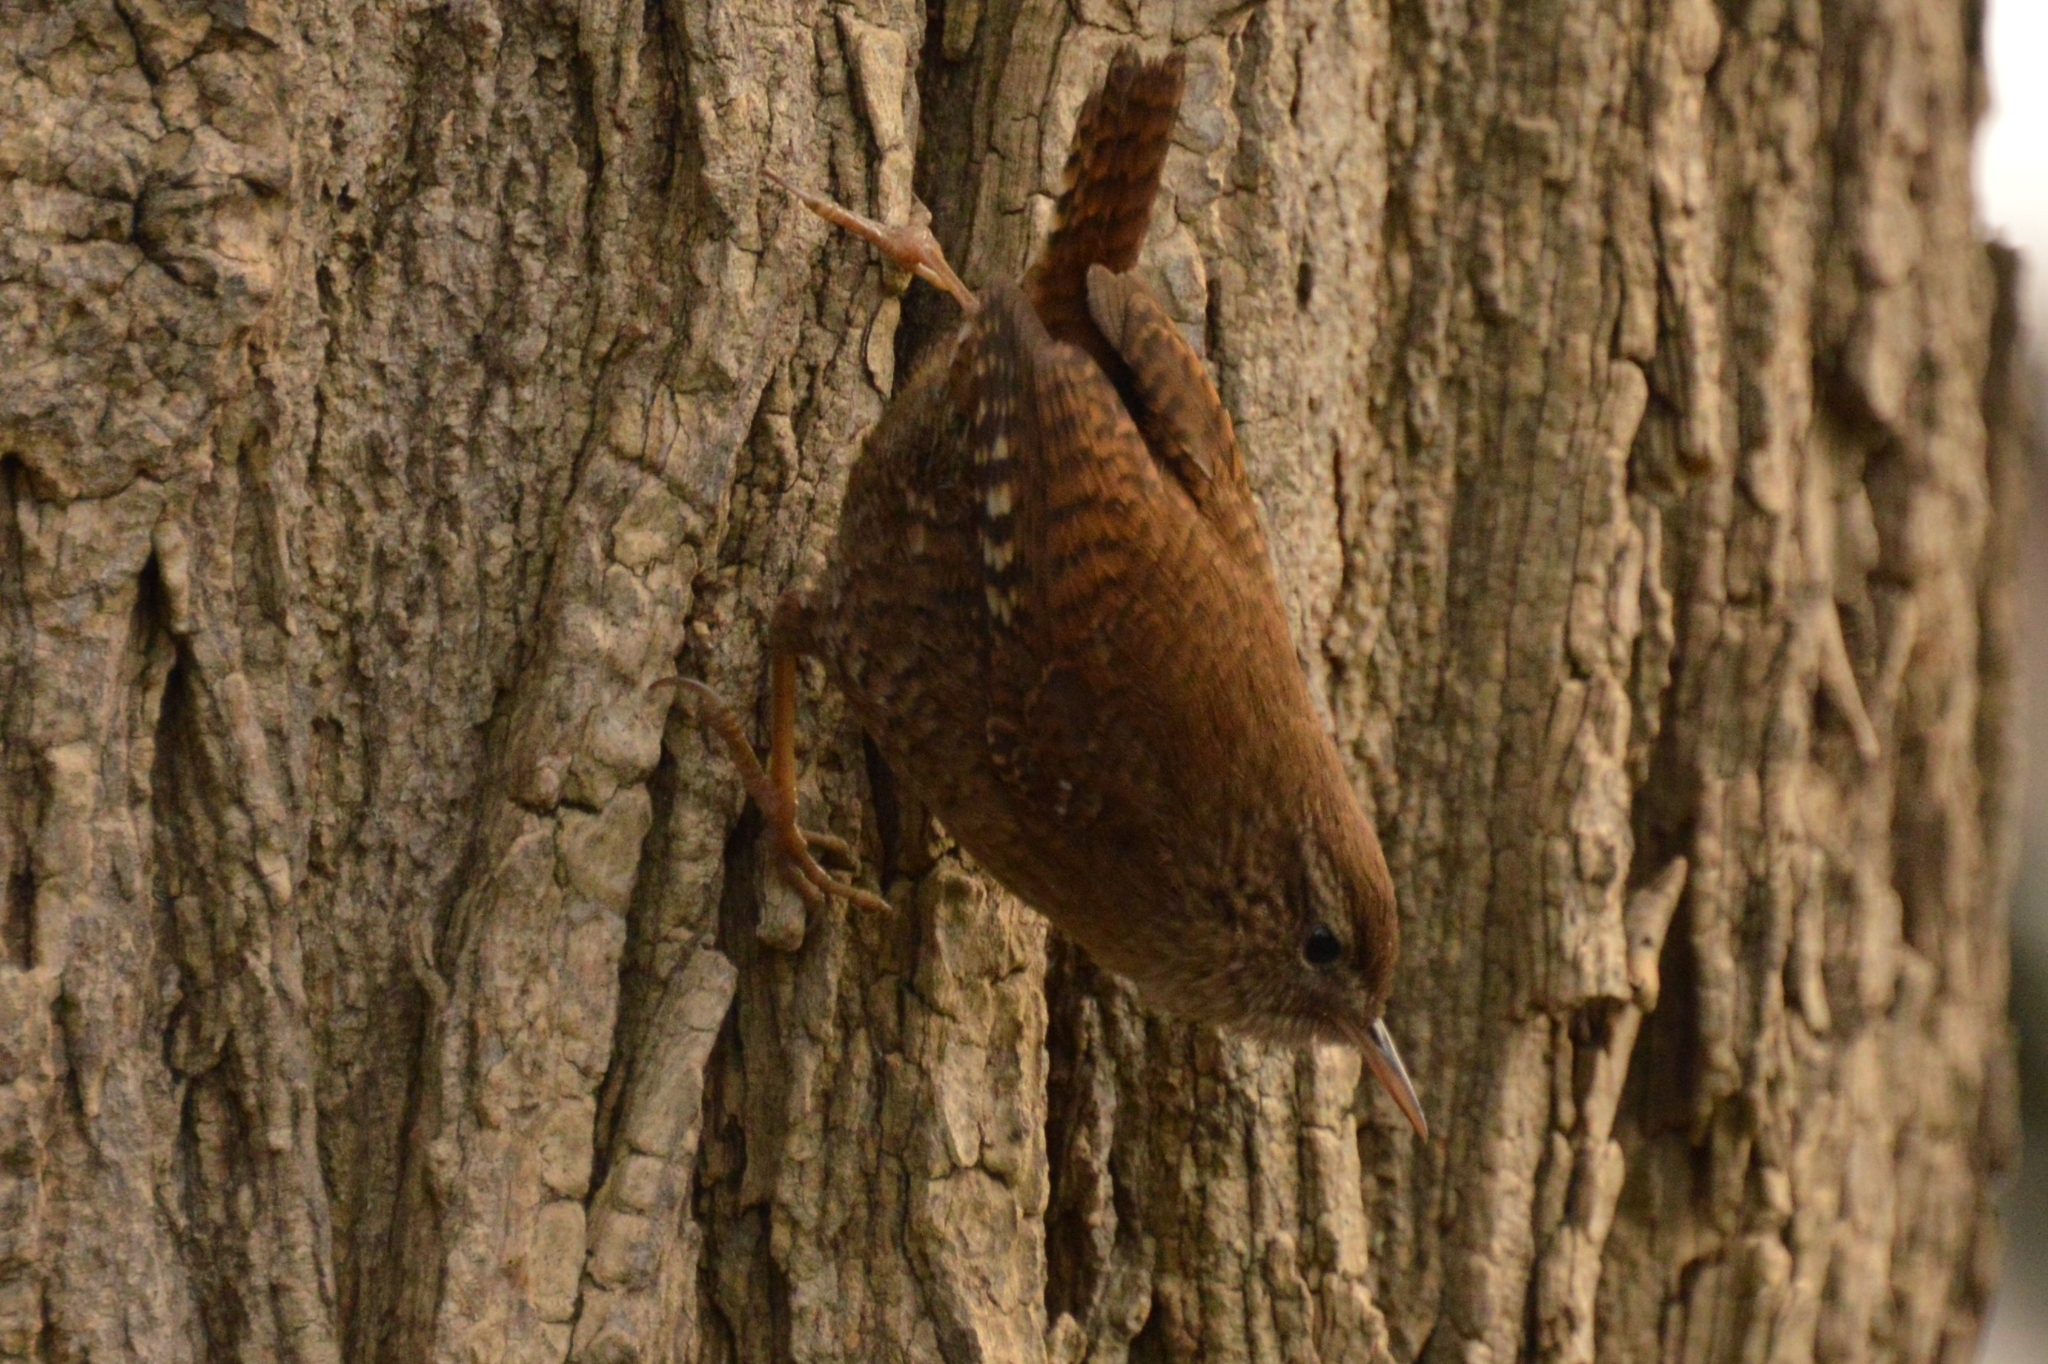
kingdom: Animalia
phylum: Chordata
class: Aves
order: Passeriformes
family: Troglodytidae
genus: Troglodytes
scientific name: Troglodytes troglodytes
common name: Eurasian wren
